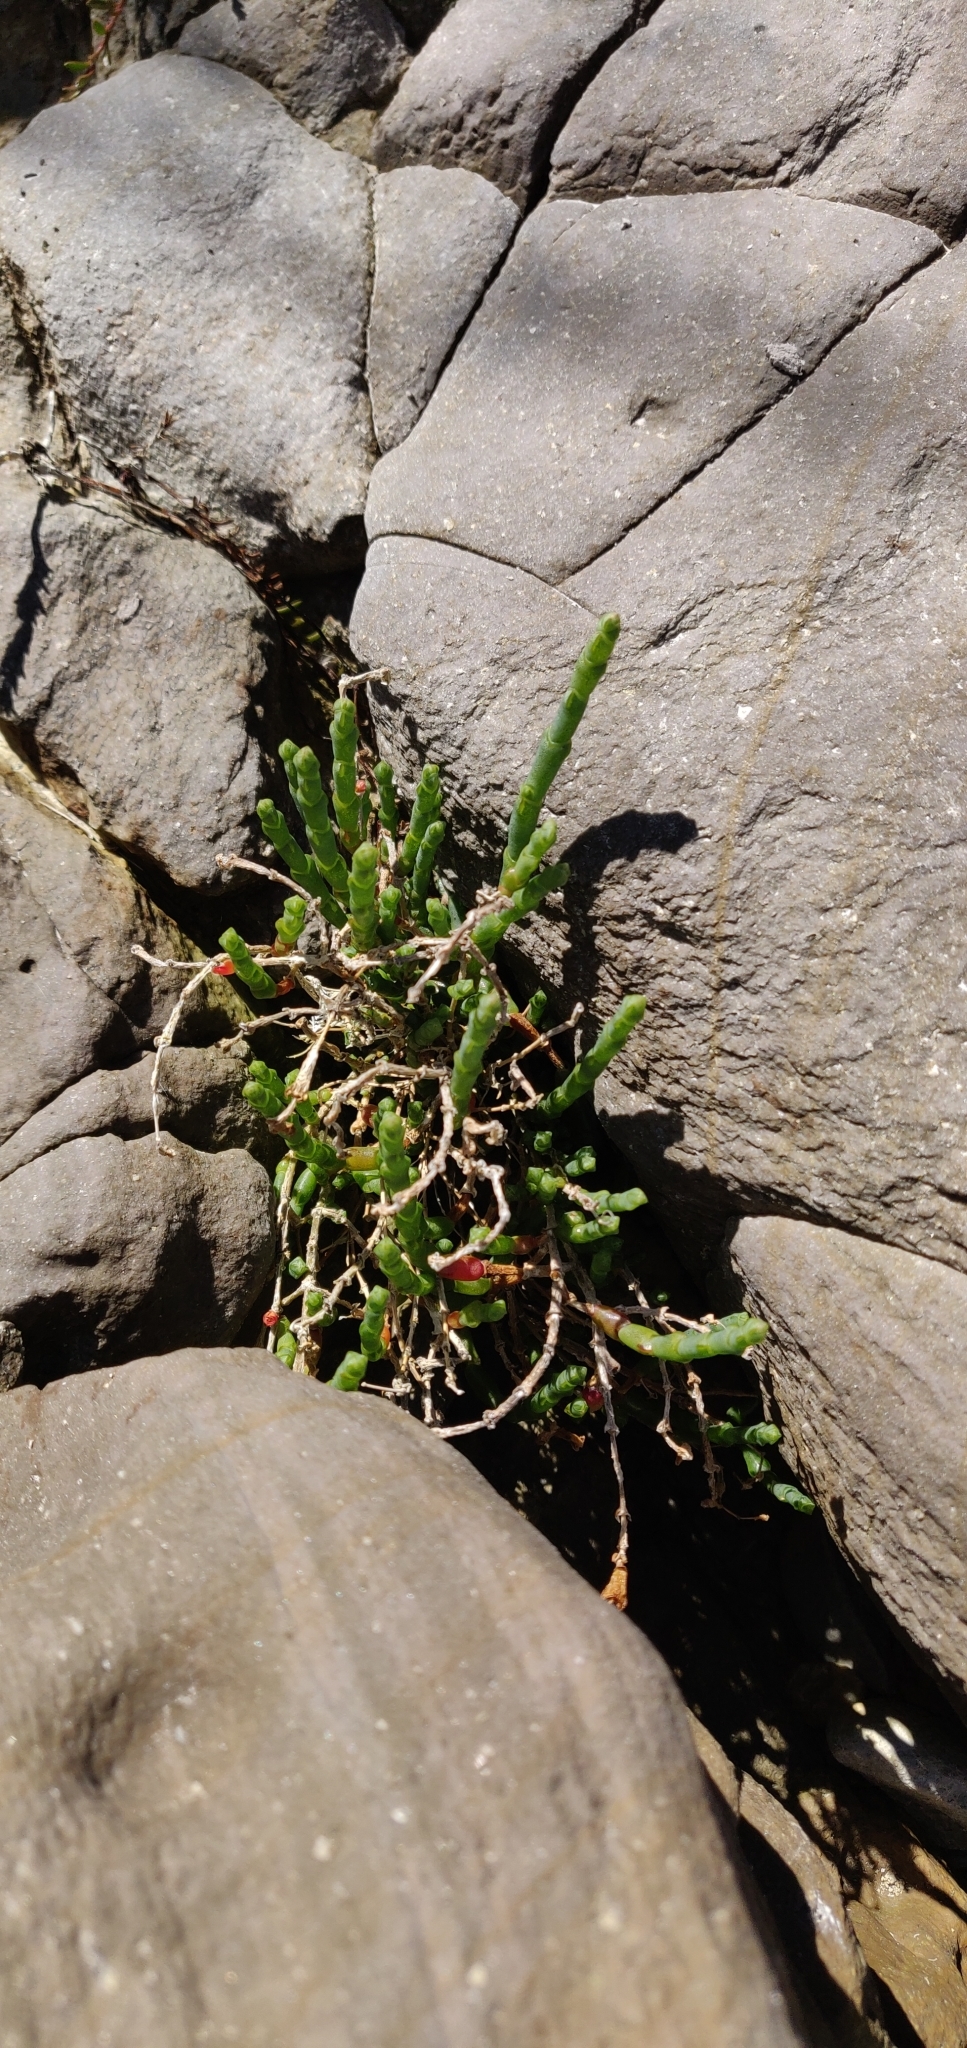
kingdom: Plantae
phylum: Tracheophyta
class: Magnoliopsida
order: Caryophyllales
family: Amaranthaceae
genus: Salicornia
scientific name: Salicornia quinqueflora
